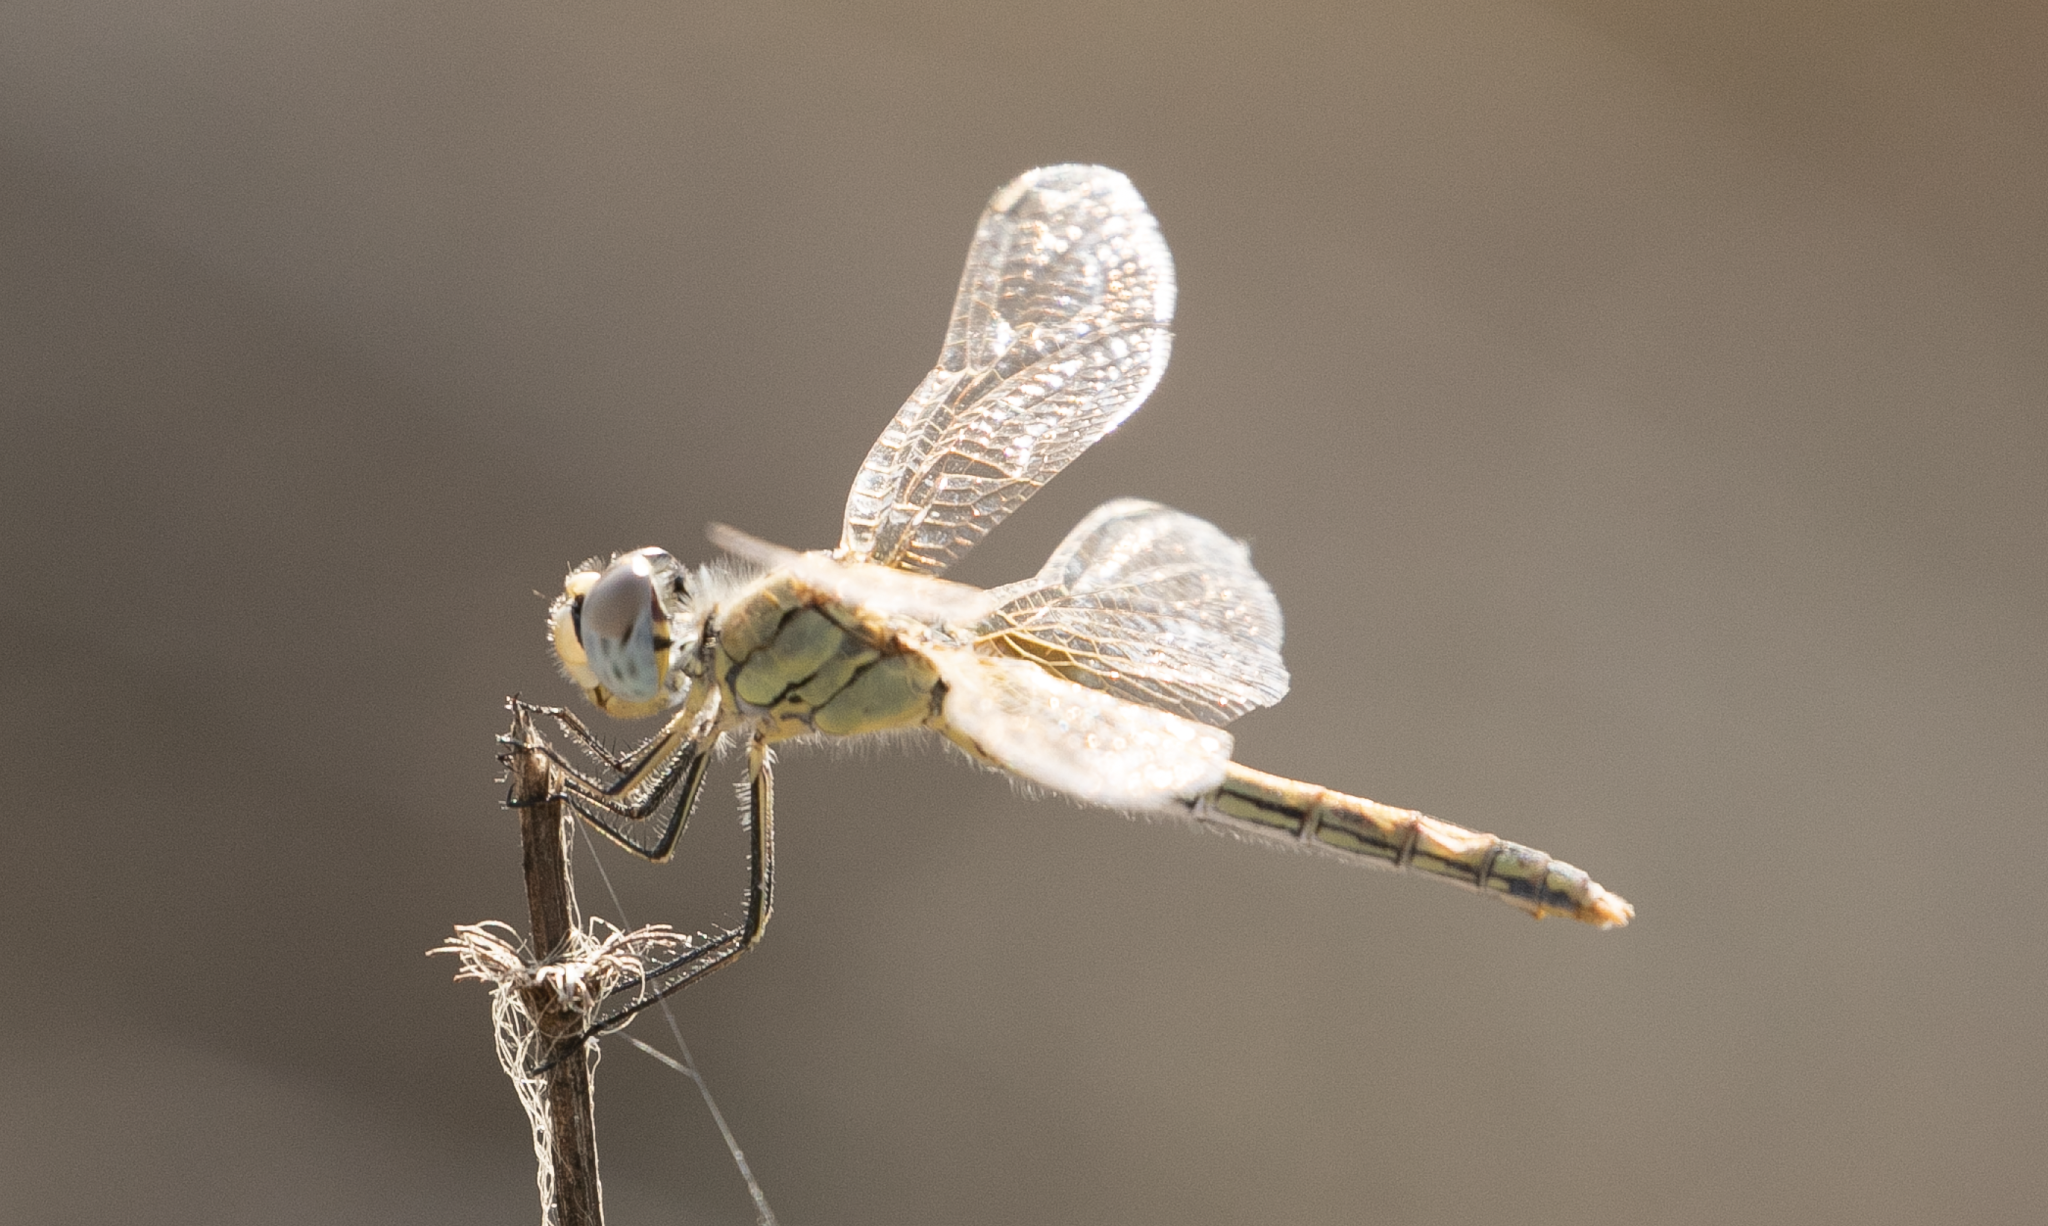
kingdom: Animalia
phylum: Arthropoda
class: Insecta
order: Odonata
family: Libellulidae
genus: Sympetrum
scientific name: Sympetrum fonscolombii
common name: Red-veined darter
